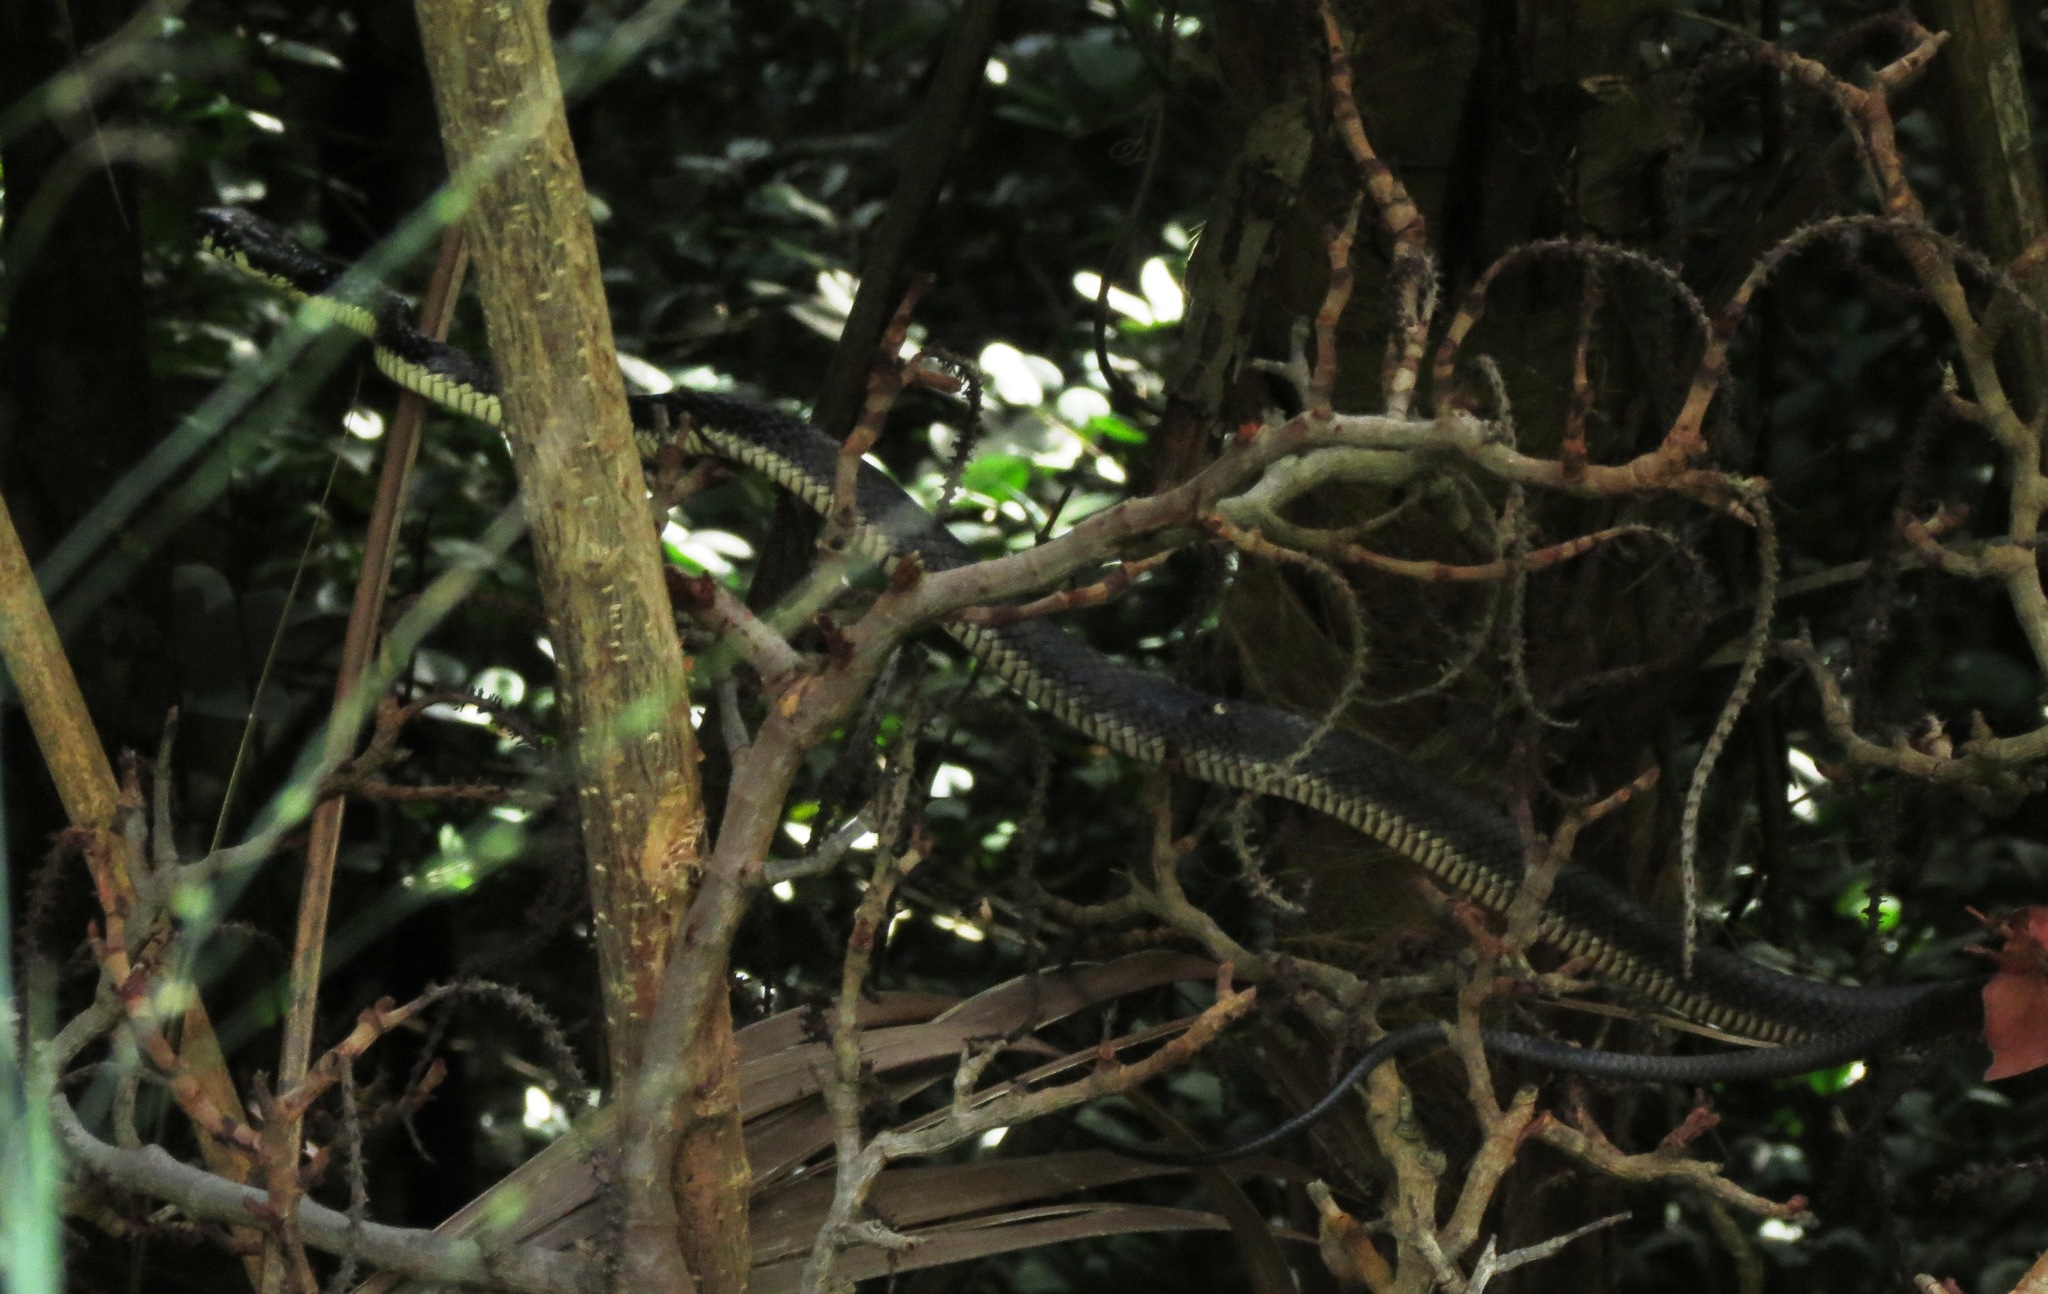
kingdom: Animalia
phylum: Chordata
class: Squamata
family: Colubridae
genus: Spilotes
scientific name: Spilotes pullatus
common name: Chicken snake
